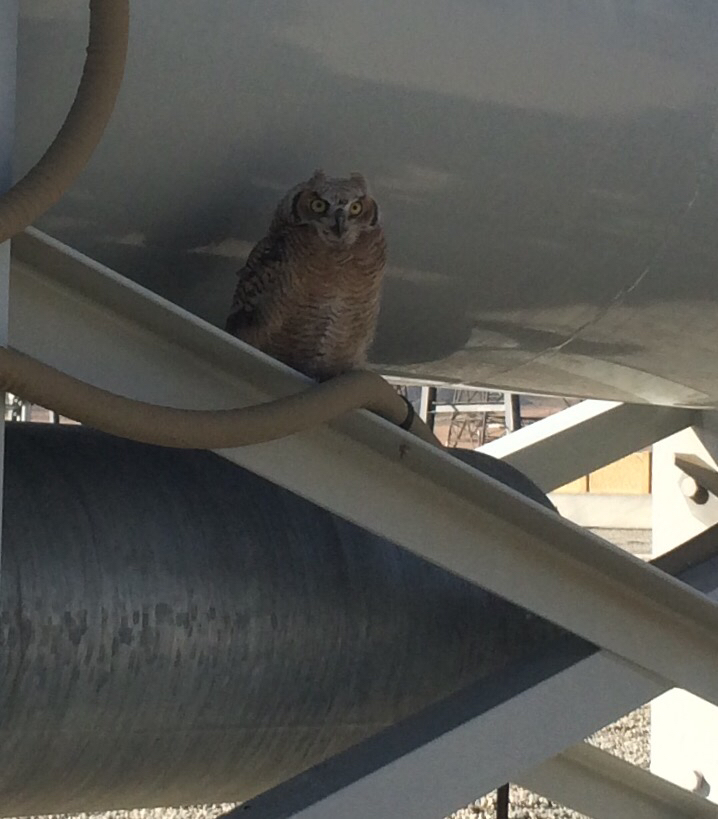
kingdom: Animalia
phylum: Chordata
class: Aves
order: Strigiformes
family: Strigidae
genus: Bubo
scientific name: Bubo virginianus
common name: Great horned owl
